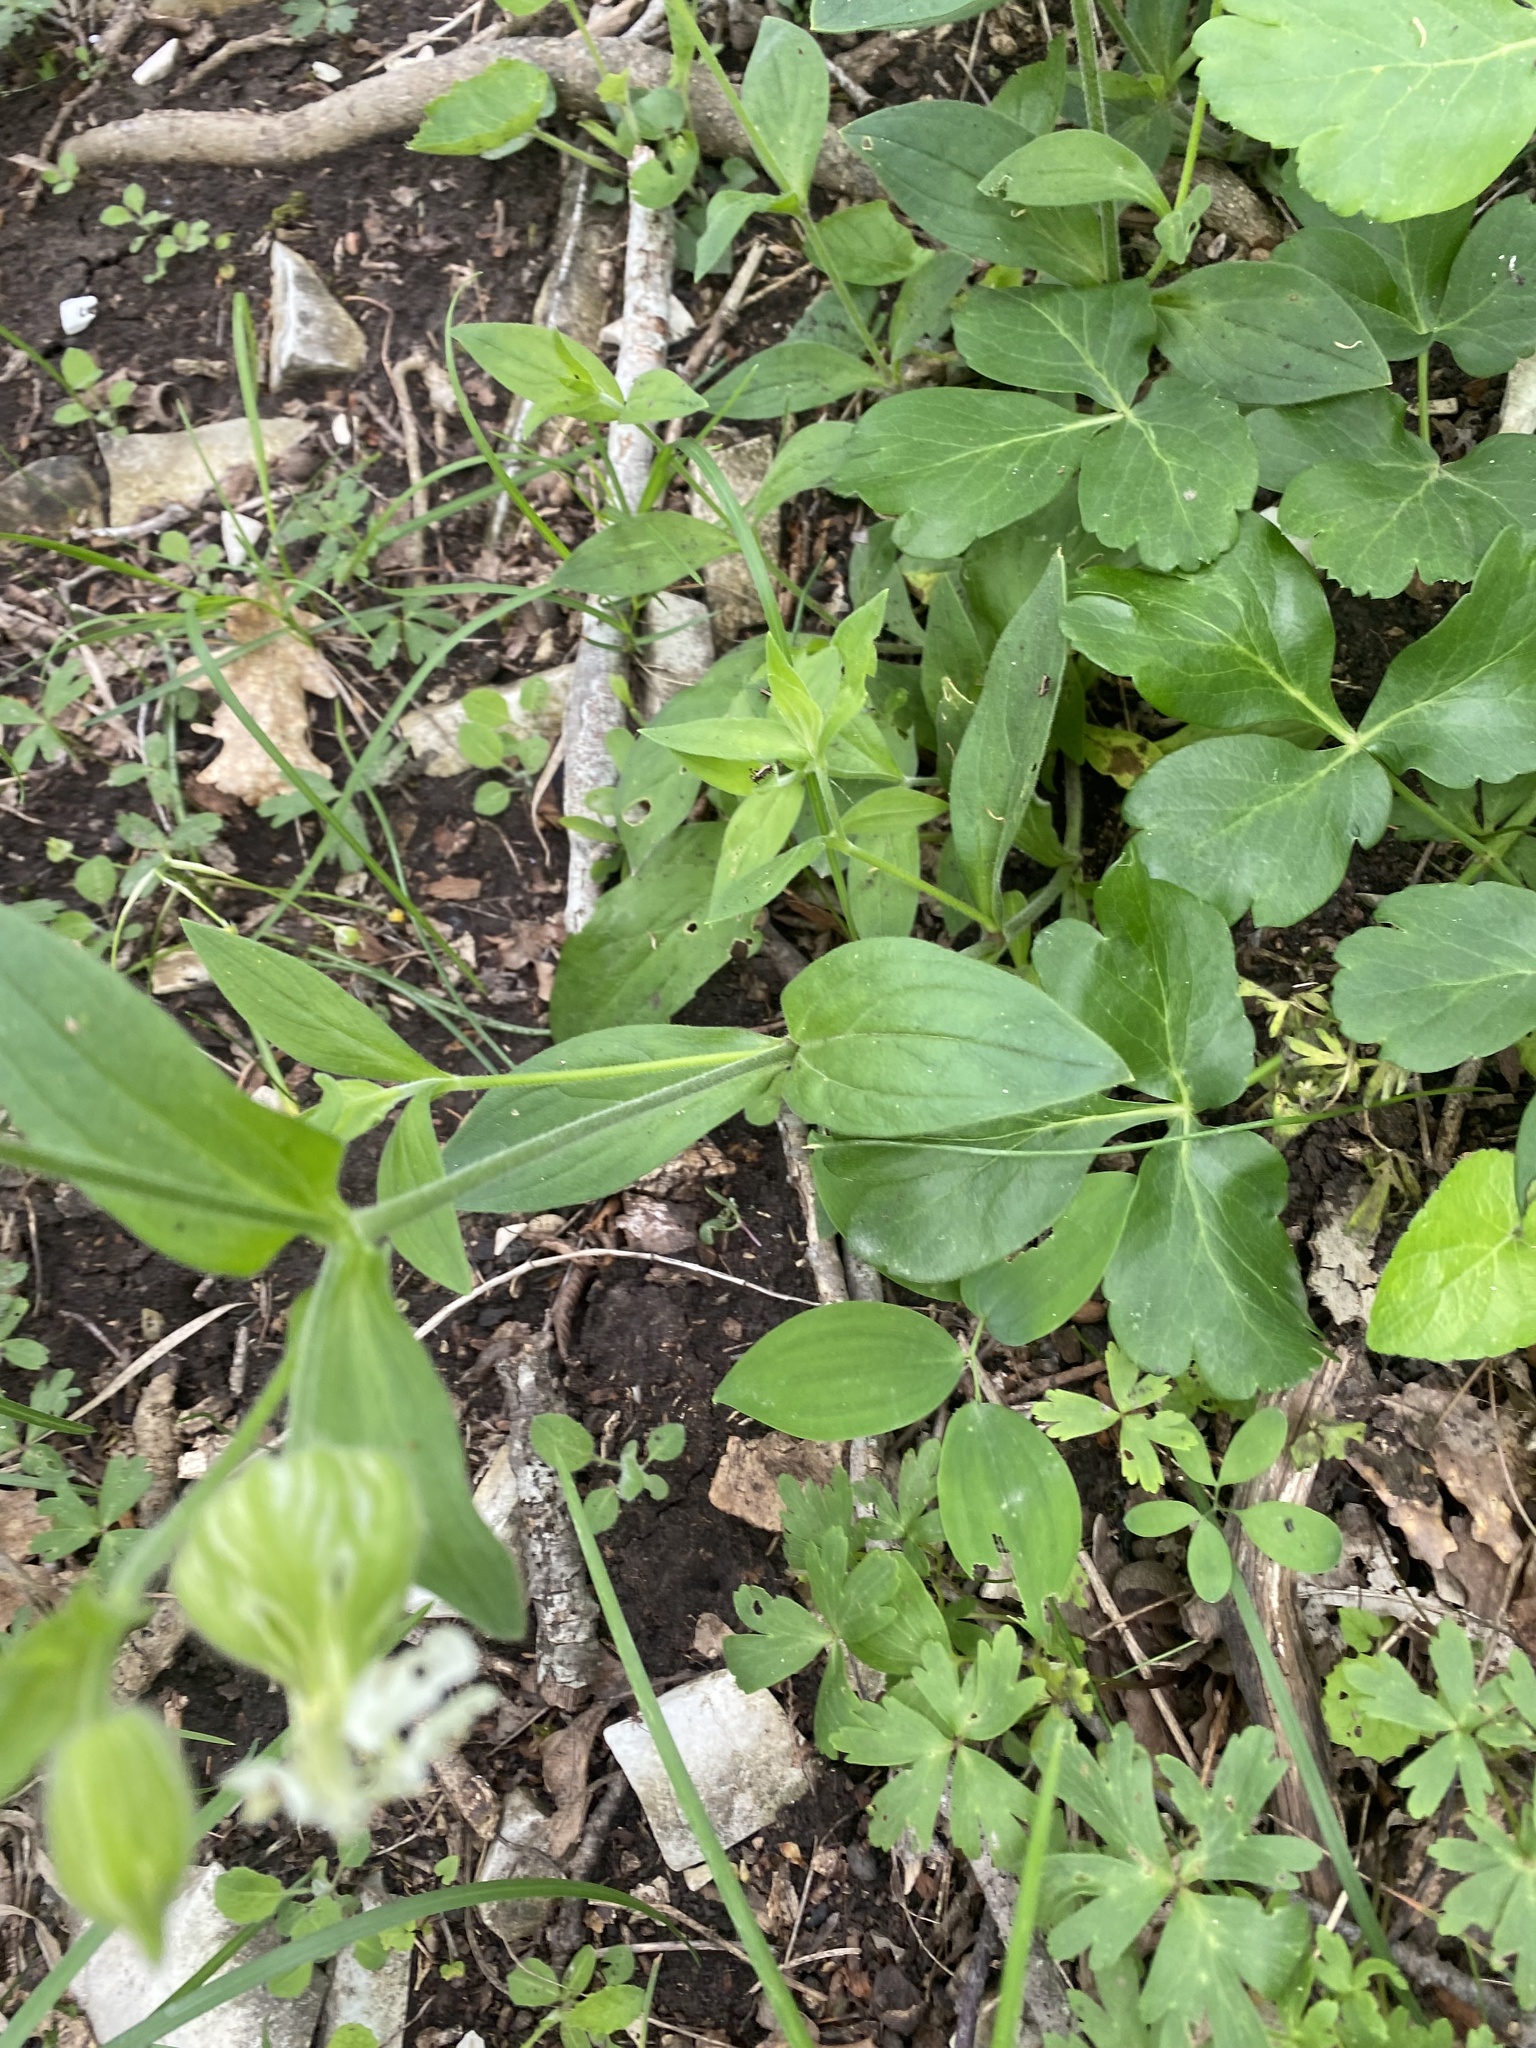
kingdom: Plantae
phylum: Tracheophyta
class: Magnoliopsida
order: Caryophyllales
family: Caryophyllaceae
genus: Silene
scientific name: Silene latifolia
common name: White campion
